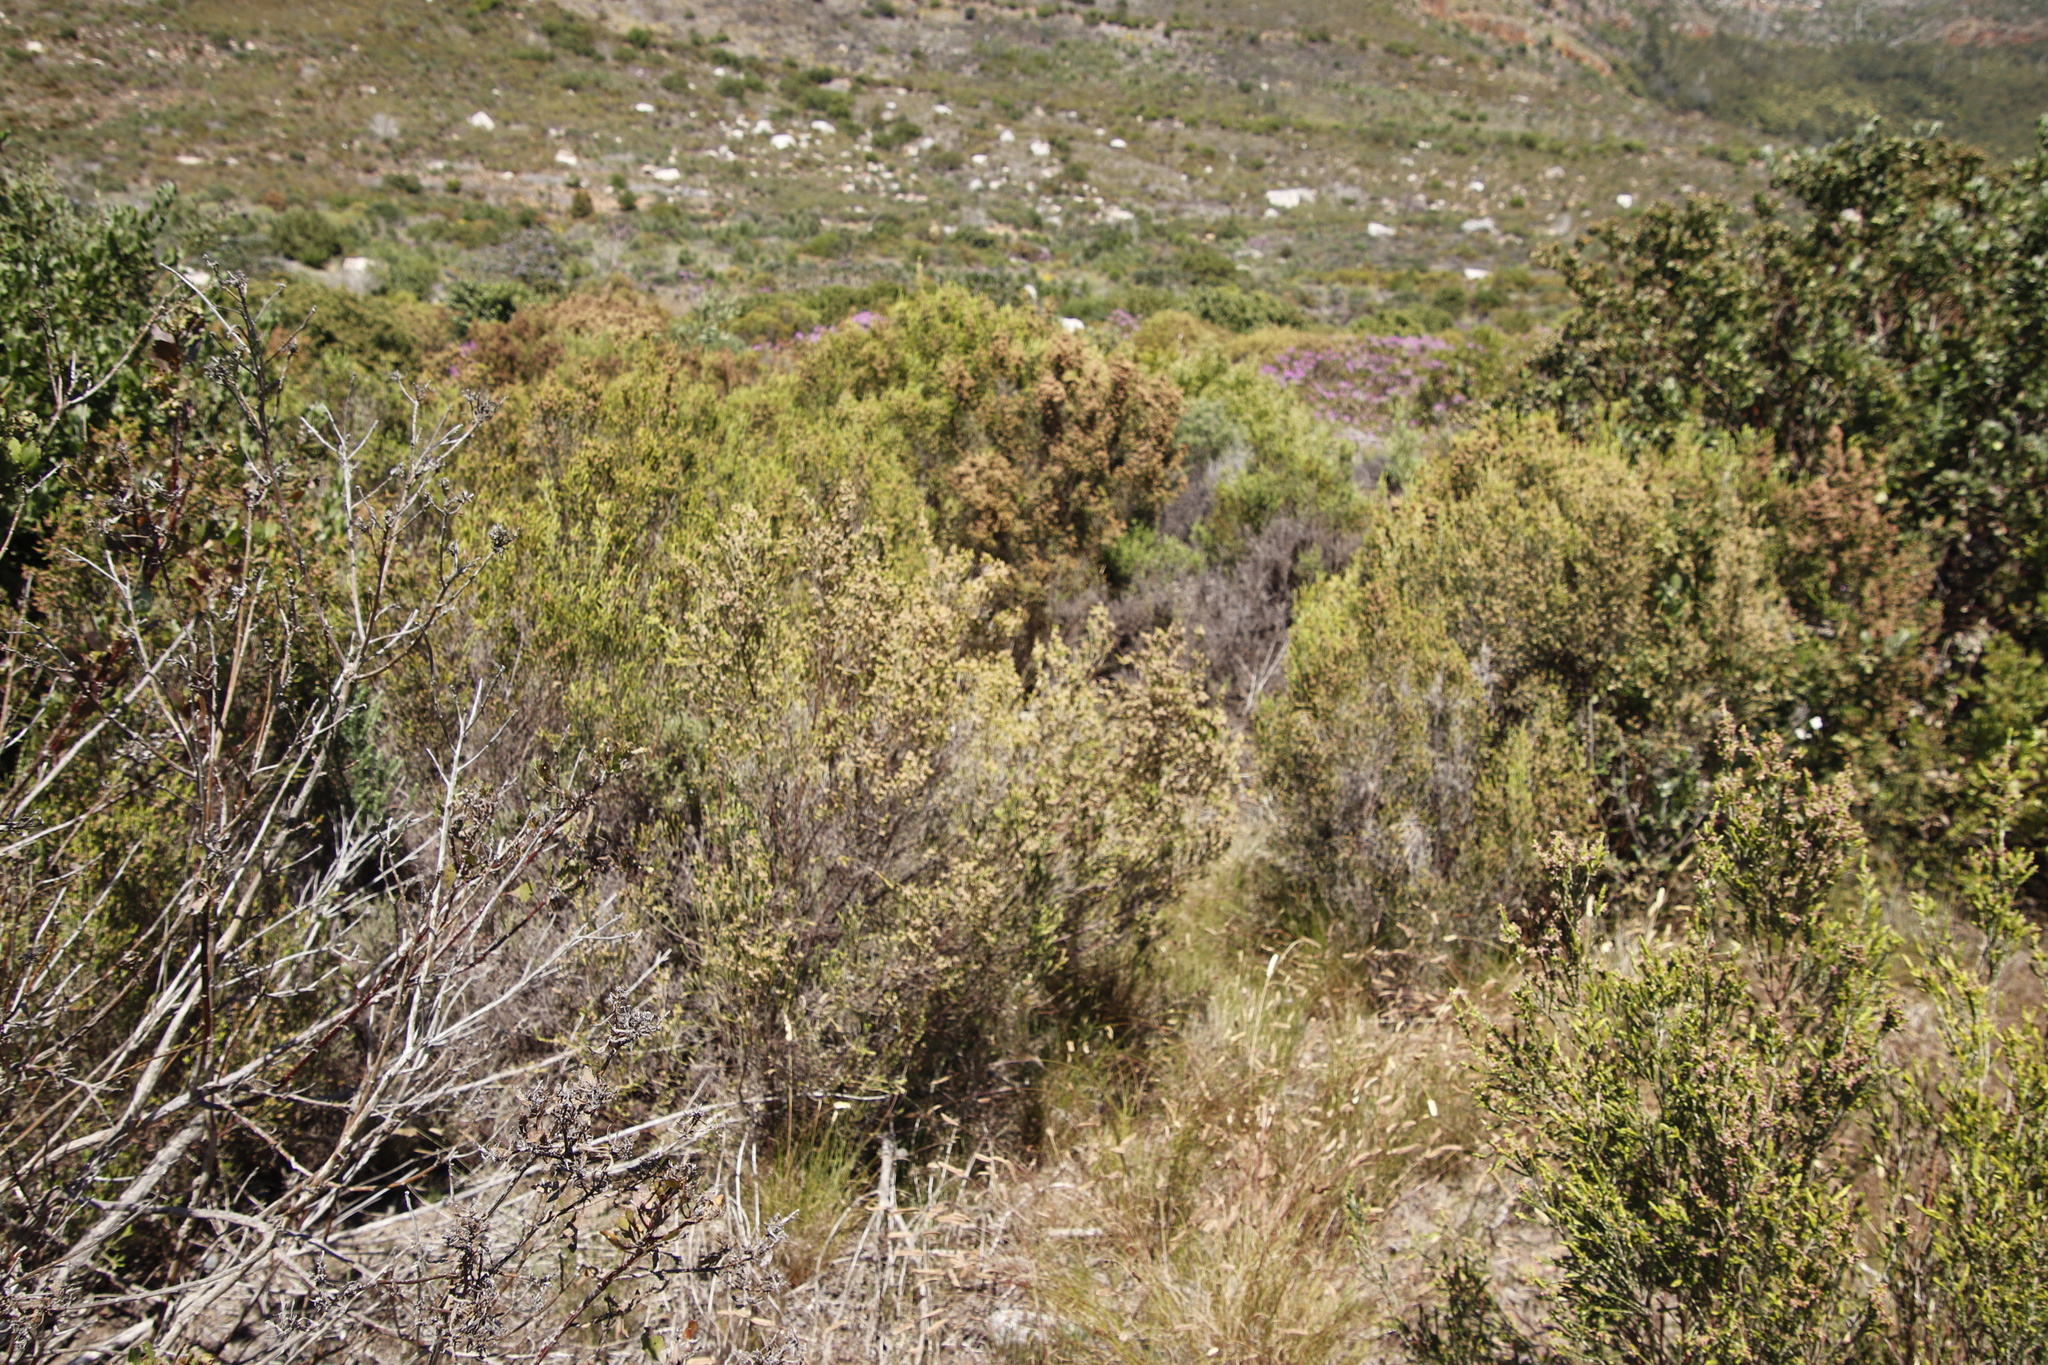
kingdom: Plantae
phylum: Tracheophyta
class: Magnoliopsida
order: Malvales
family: Thymelaeaceae
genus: Passerina
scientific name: Passerina corymbosa
